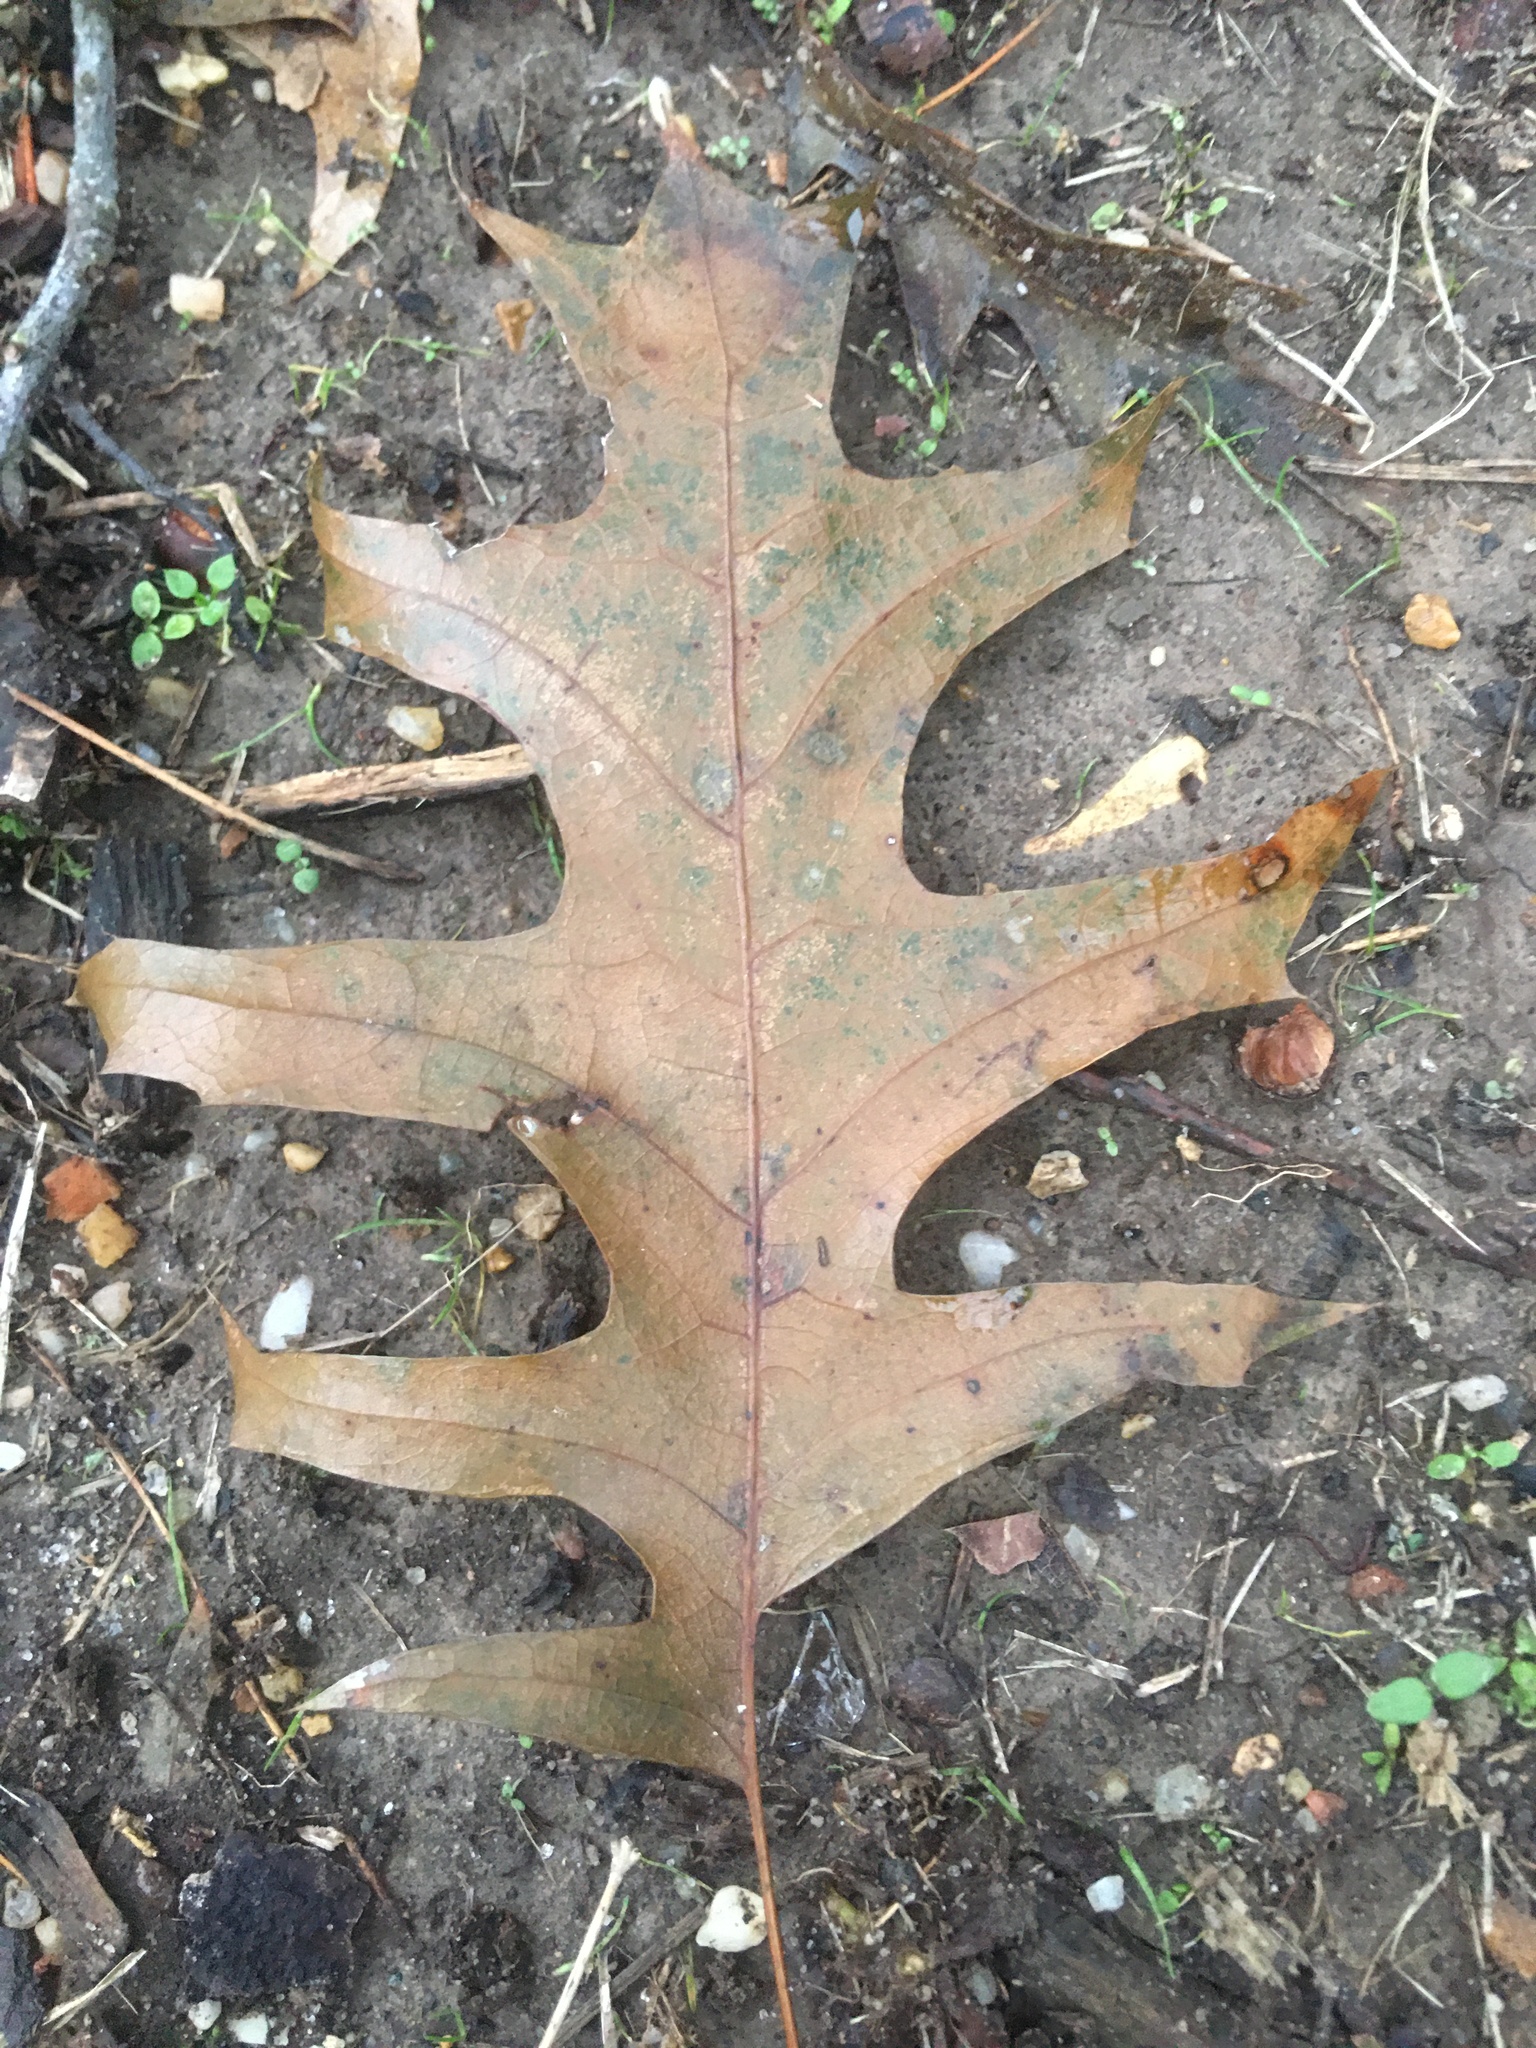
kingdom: Plantae
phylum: Tracheophyta
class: Magnoliopsida
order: Fagales
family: Fagaceae
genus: Quercus
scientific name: Quercus pagoda
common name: Cherrybark oak
